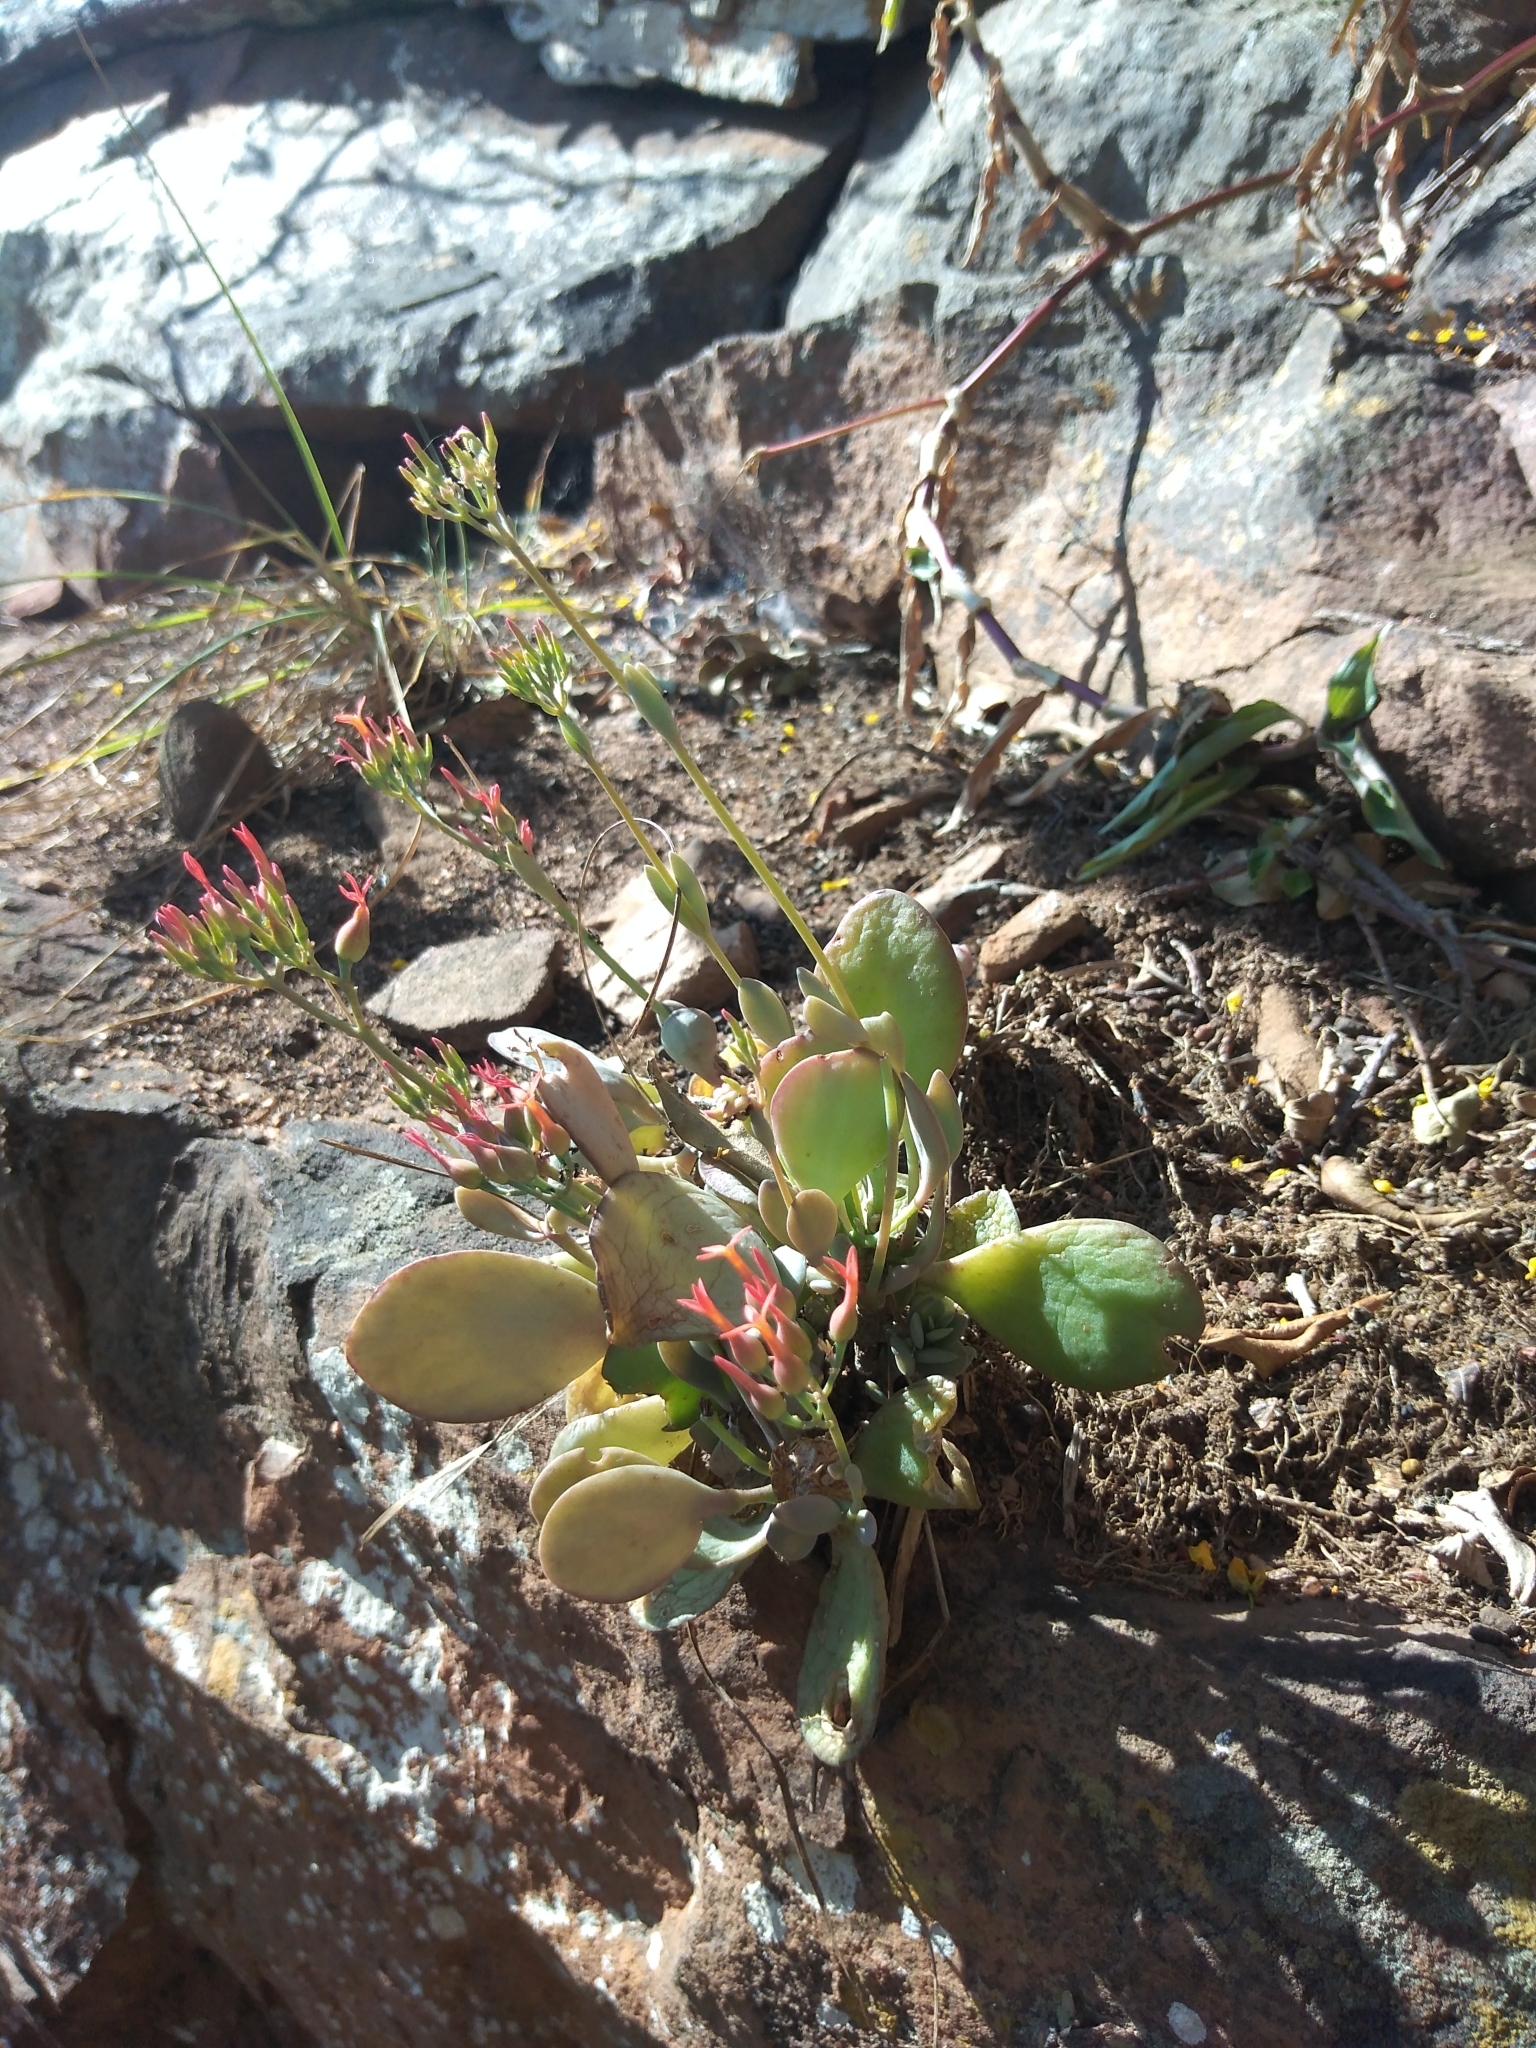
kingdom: Plantae
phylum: Tracheophyta
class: Magnoliopsida
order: Saxifragales
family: Crassulaceae
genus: Kalanchoe
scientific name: Kalanchoe rotundifolia
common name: Common kalanchoe
